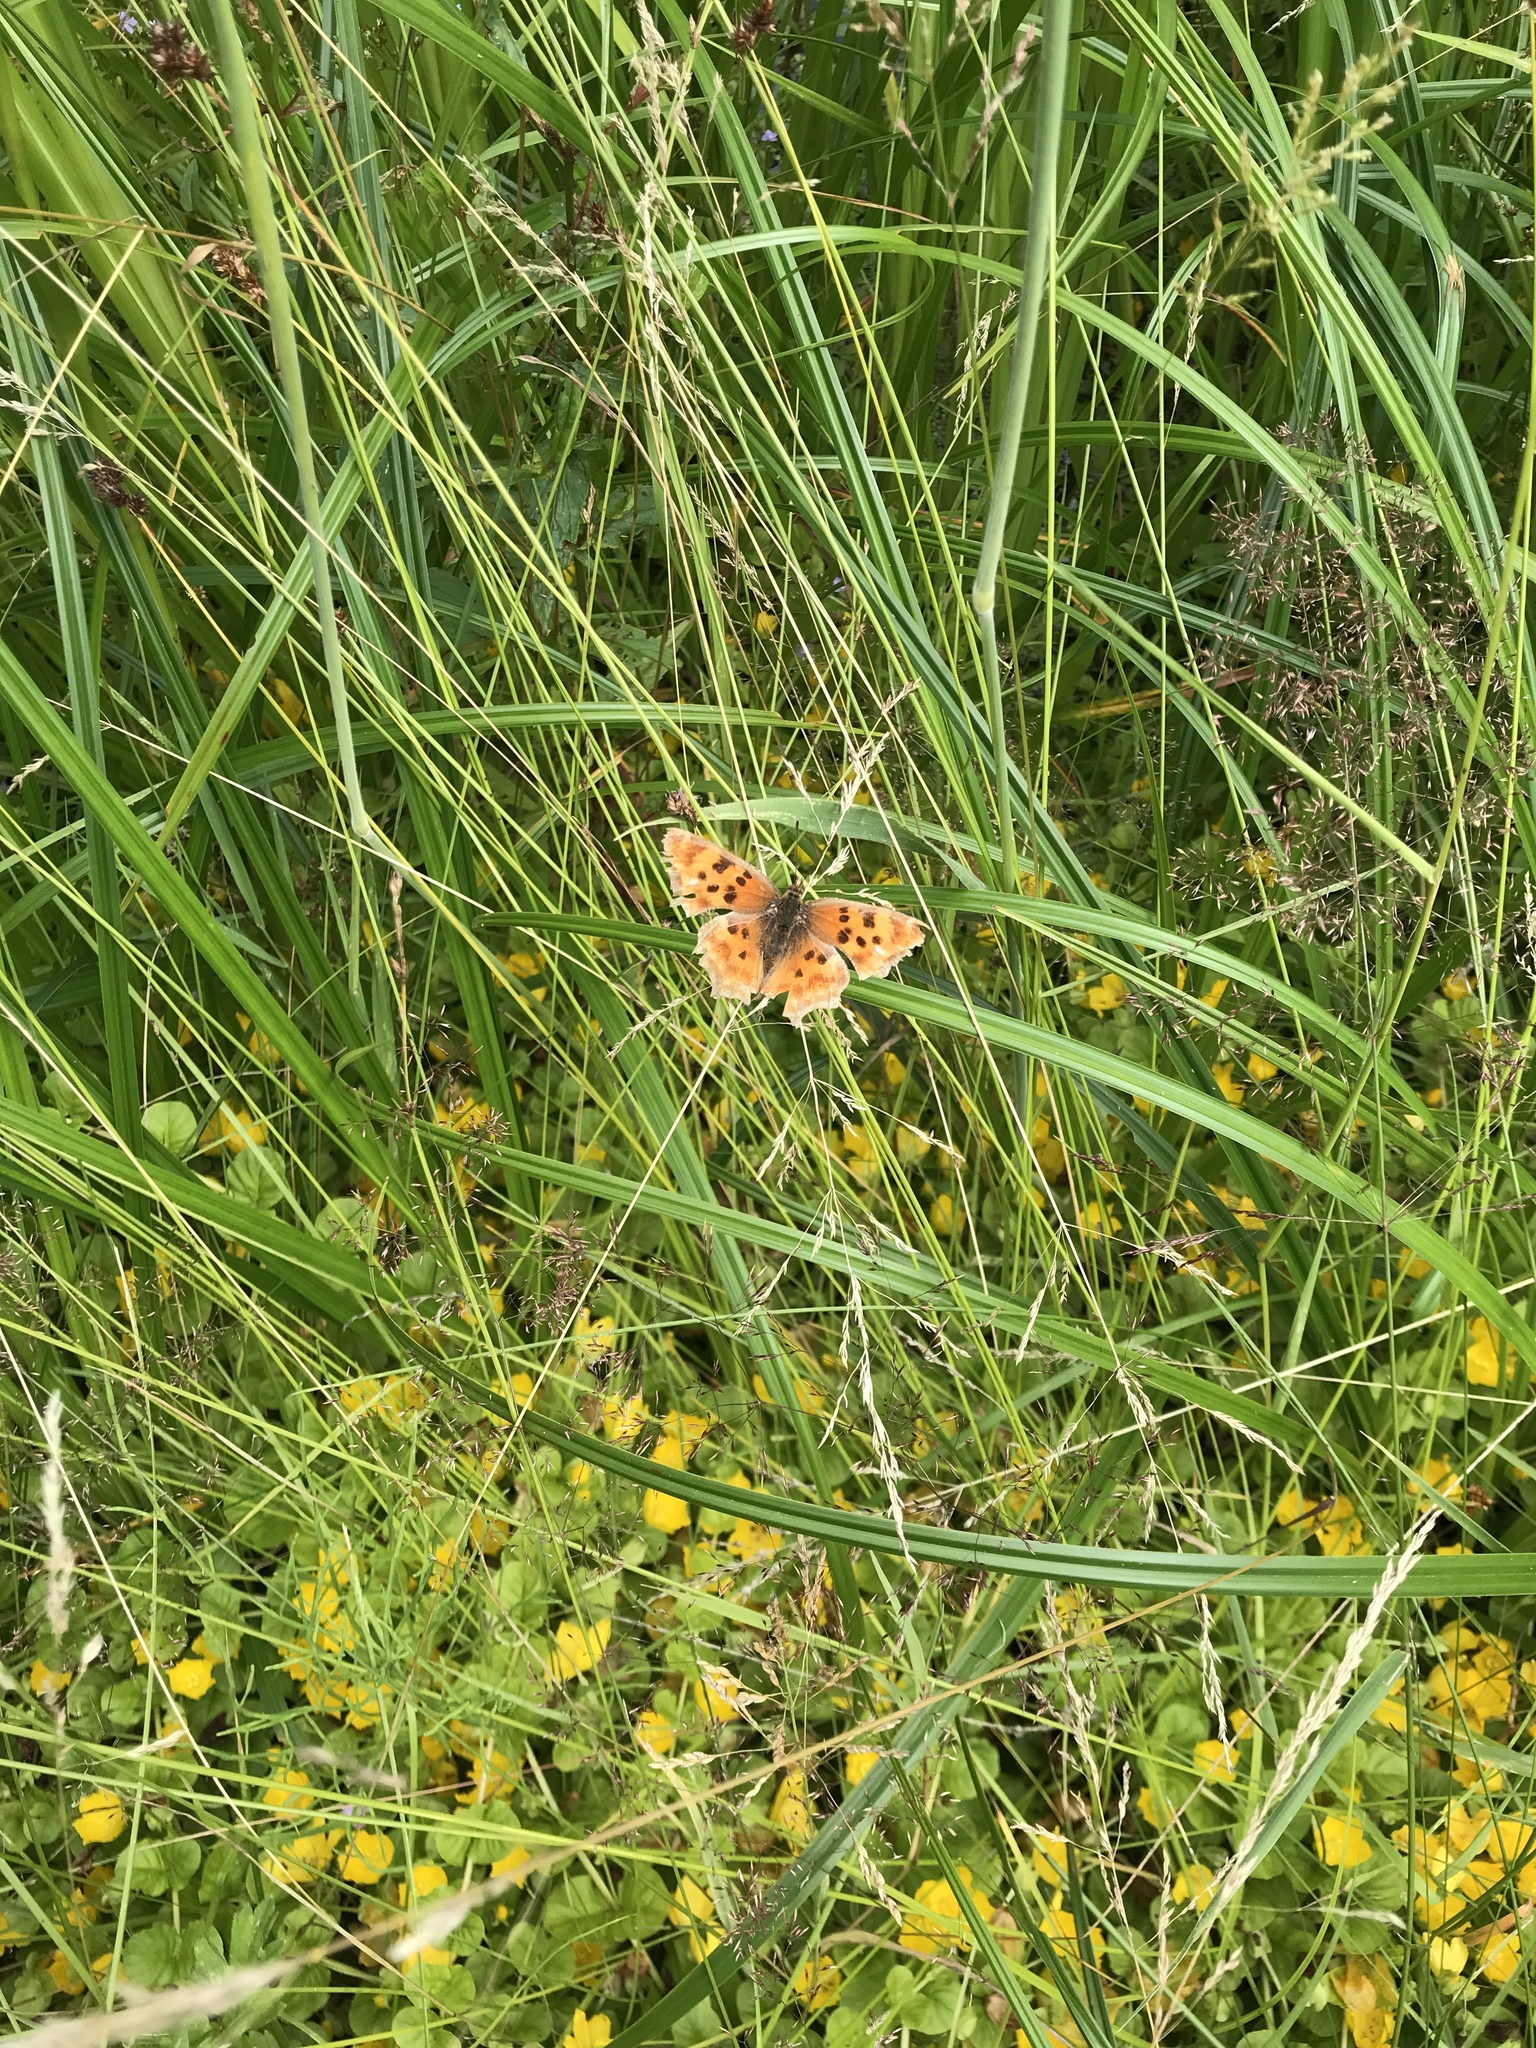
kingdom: Animalia
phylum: Arthropoda
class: Insecta
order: Lepidoptera
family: Nymphalidae
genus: Polygonia
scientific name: Polygonia satyrus
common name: Satyr angle wing
